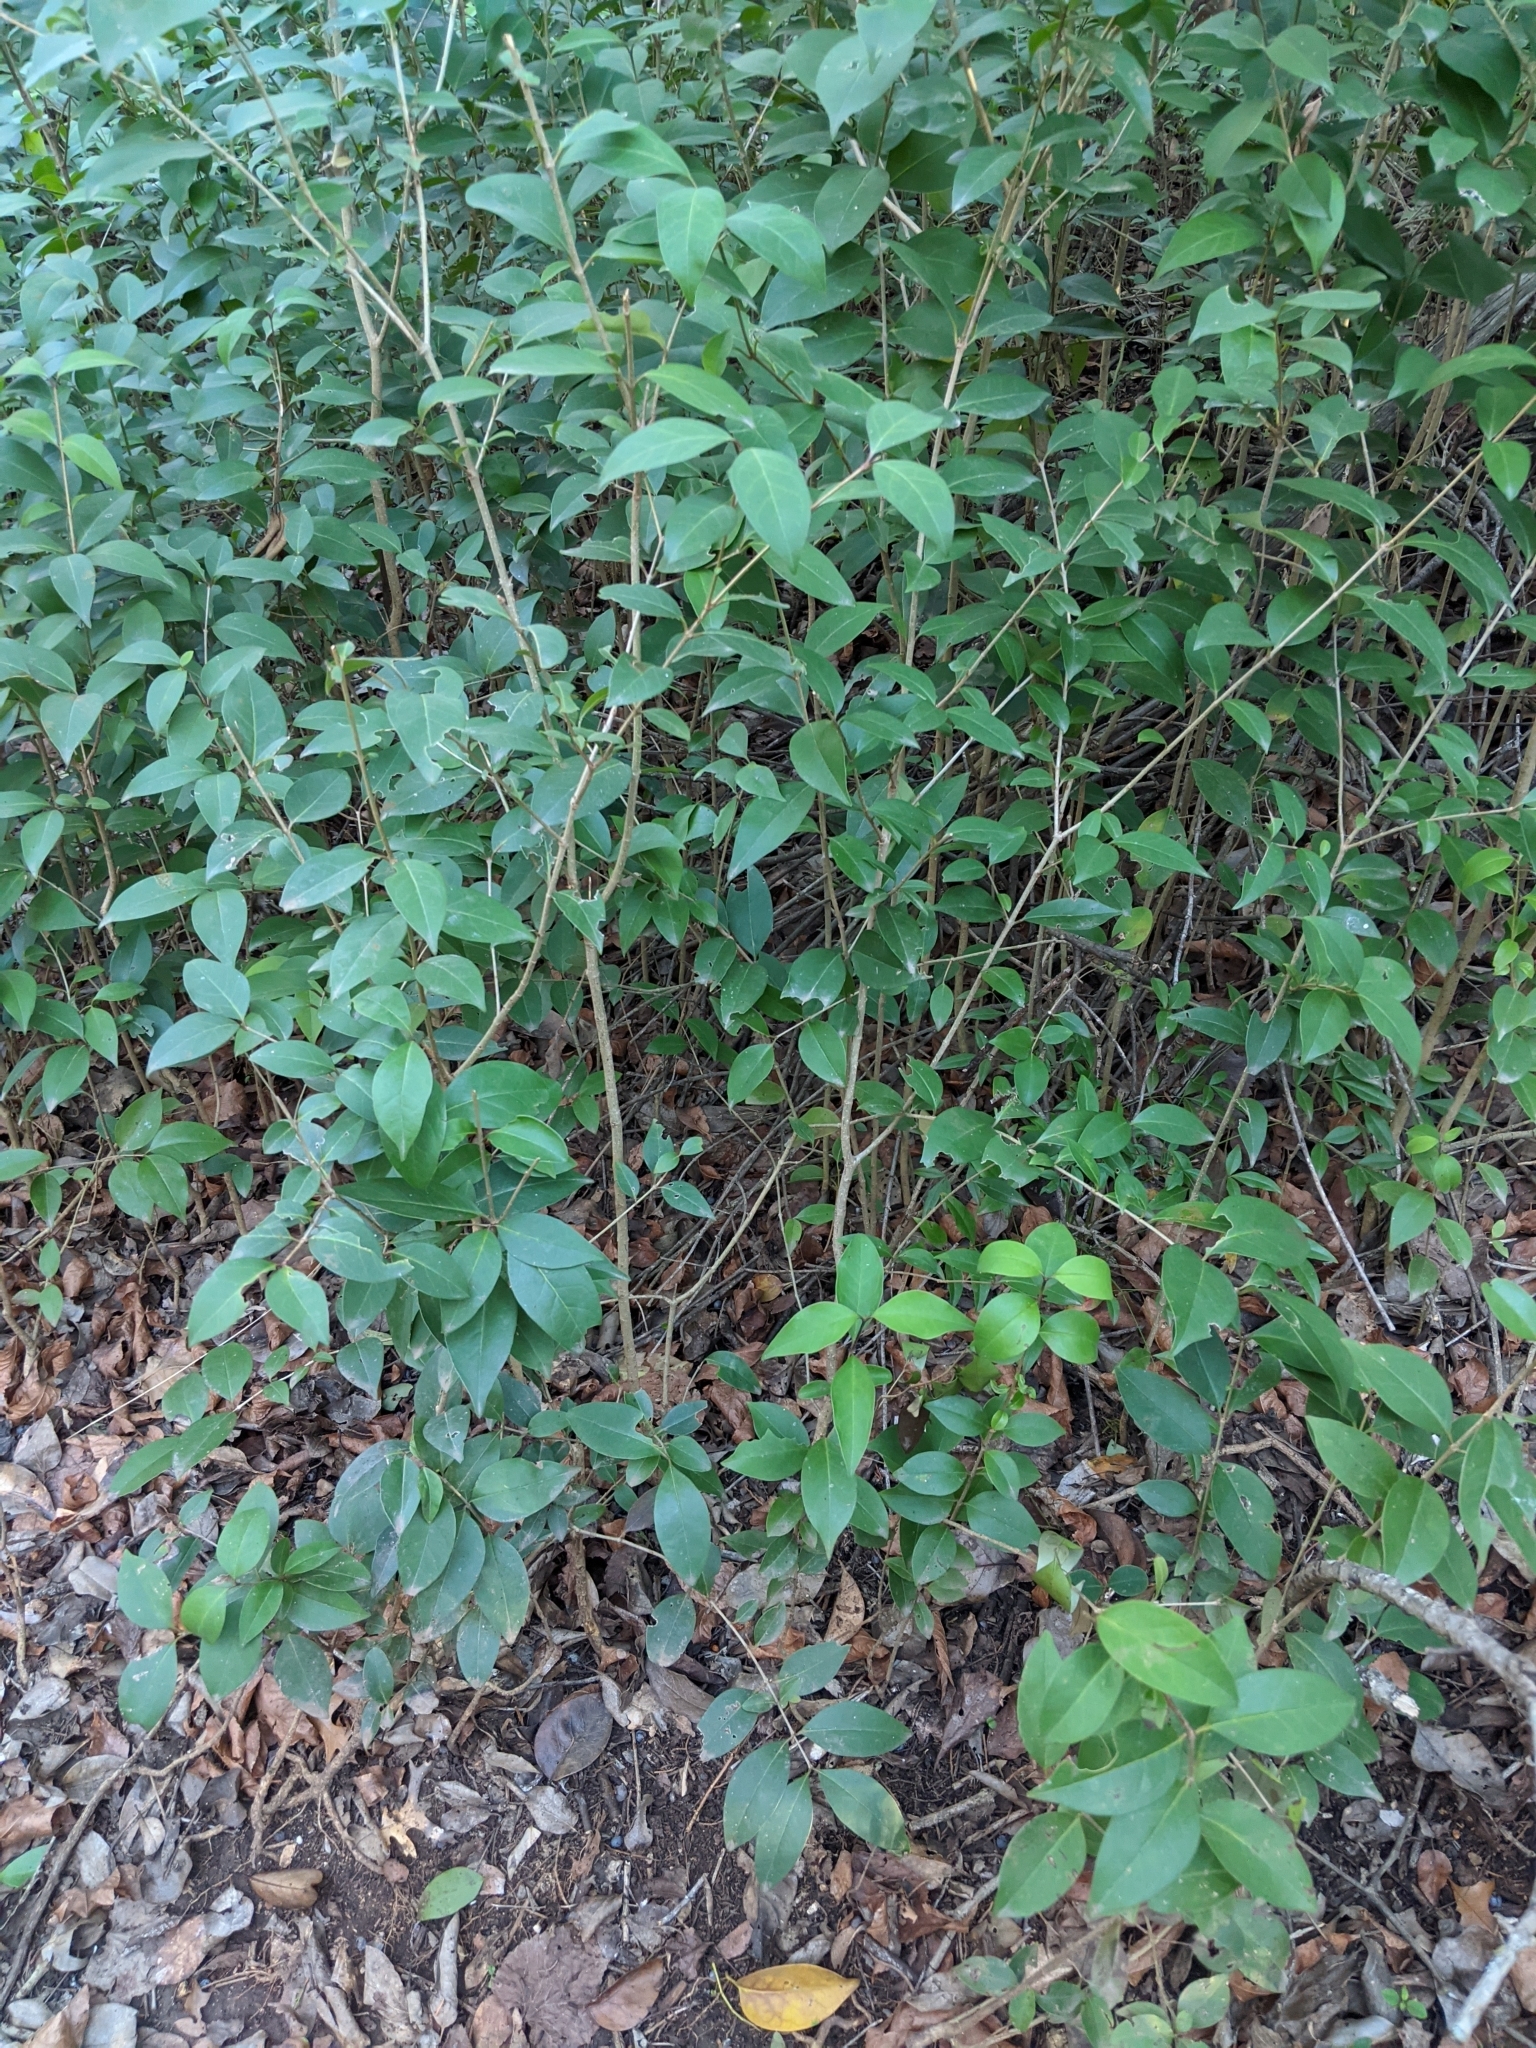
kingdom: Plantae
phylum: Tracheophyta
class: Magnoliopsida
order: Lamiales
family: Oleaceae
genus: Ligustrum
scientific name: Ligustrum lucidum
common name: Glossy privet
